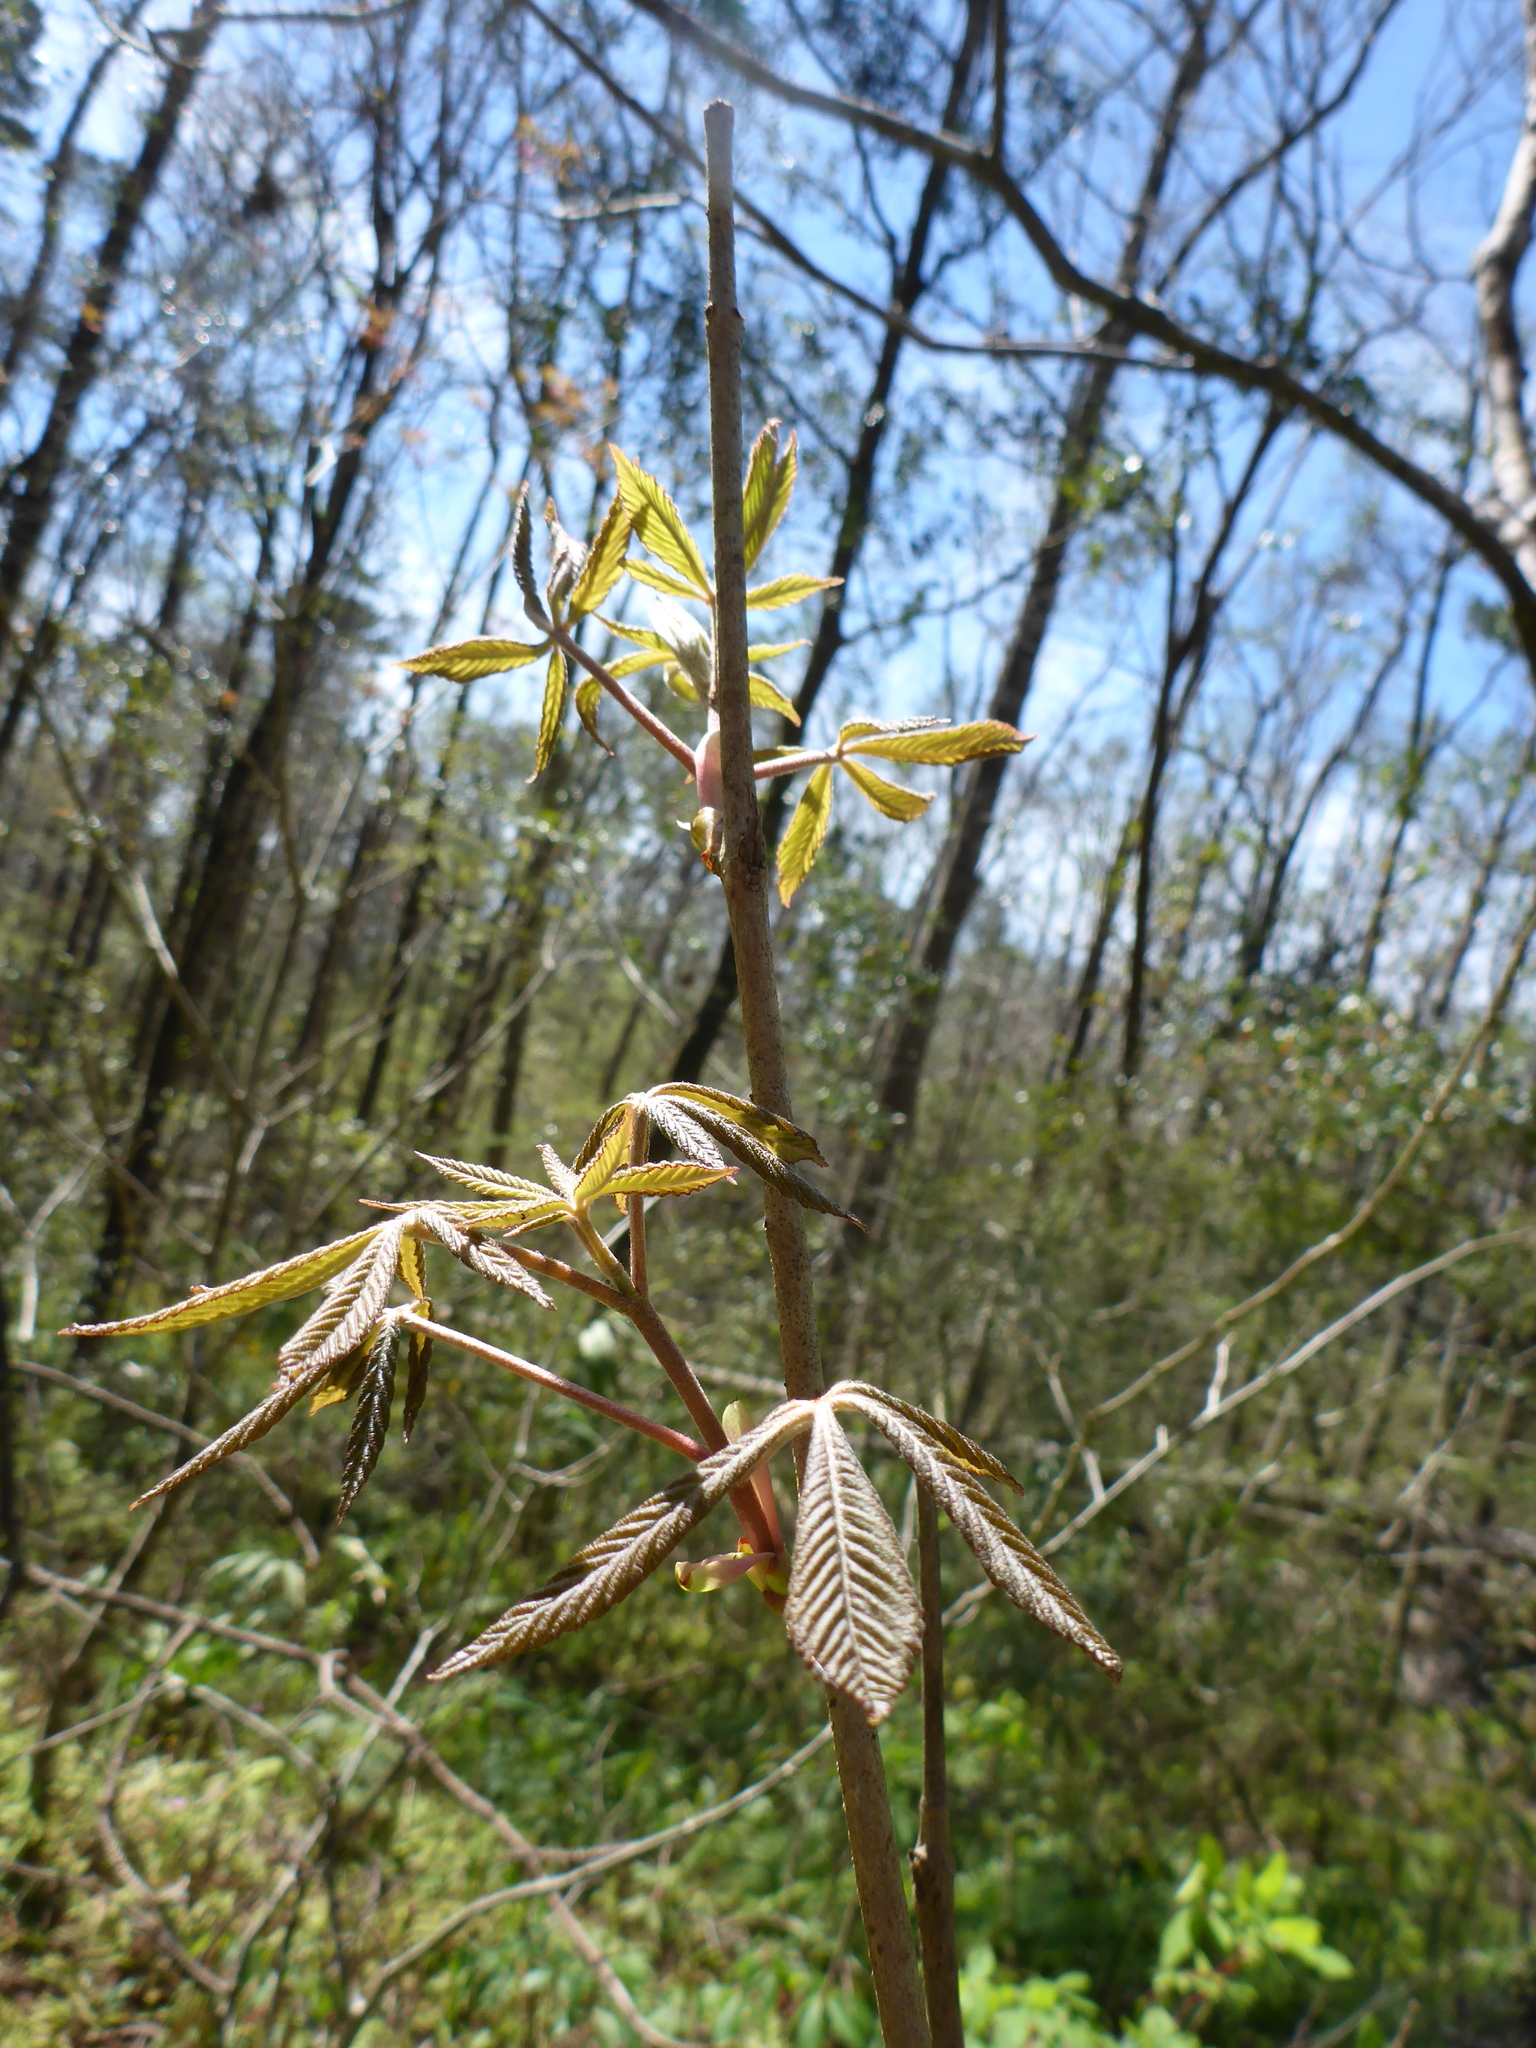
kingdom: Plantae
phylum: Tracheophyta
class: Magnoliopsida
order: Sapindales
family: Sapindaceae
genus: Aesculus
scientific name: Aesculus pavia
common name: Red buckeye
